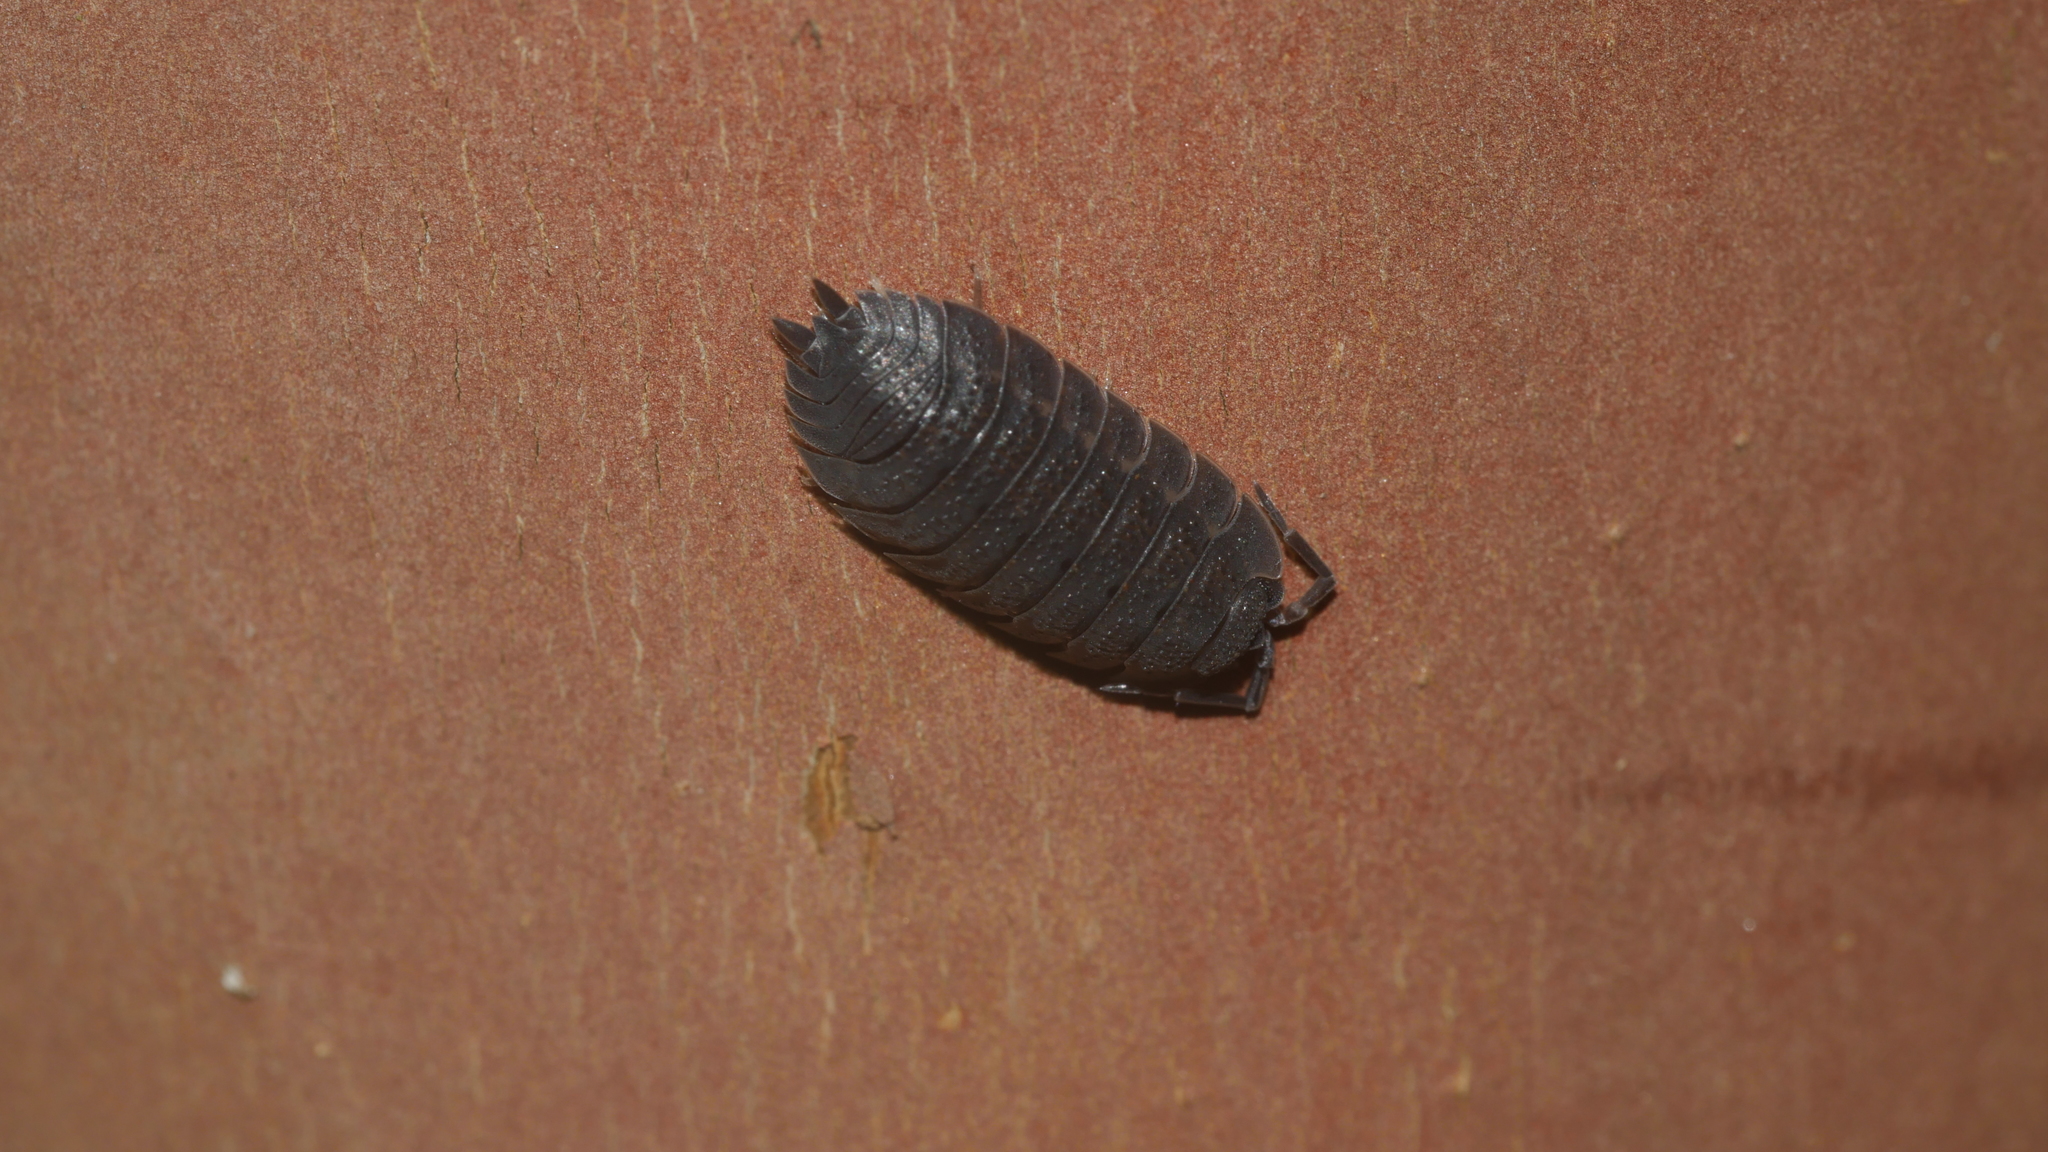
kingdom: Animalia
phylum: Arthropoda
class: Malacostraca
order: Isopoda
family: Porcellionidae
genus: Porcellio
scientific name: Porcellio scaber
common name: Common rough woodlouse
